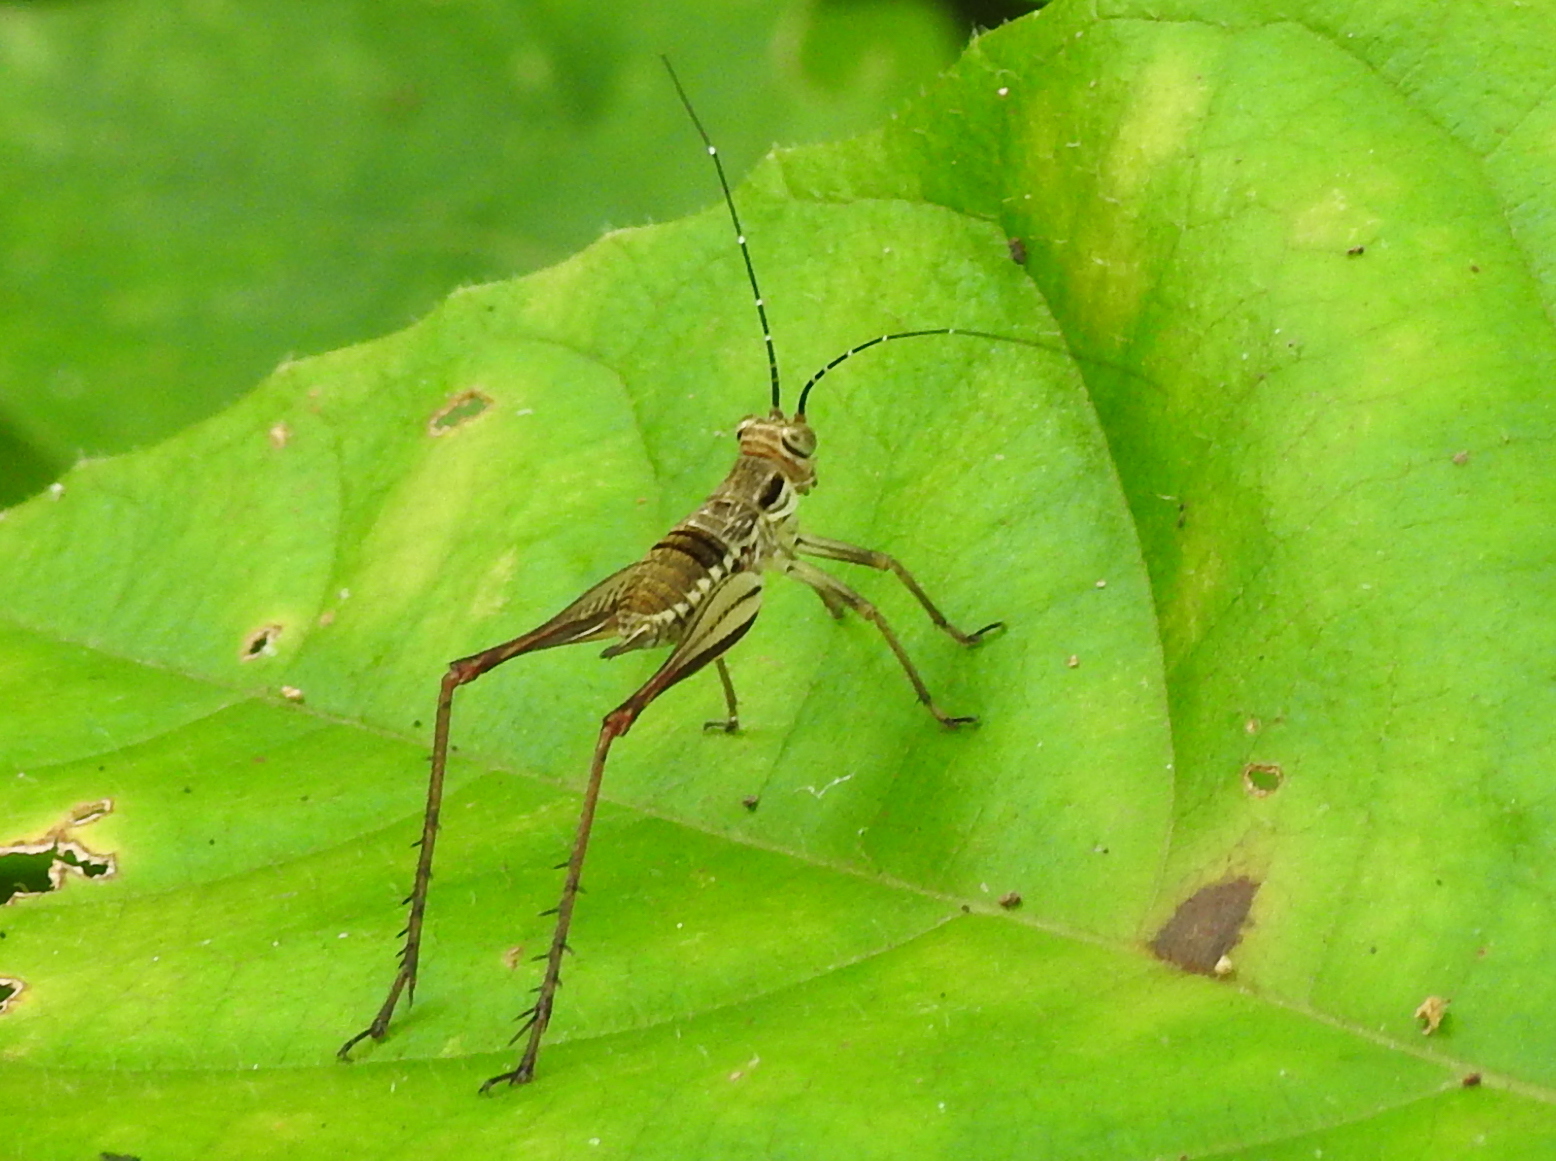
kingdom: Animalia
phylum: Arthropoda
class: Insecta
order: Orthoptera
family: Gryllidae
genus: Nisitrus
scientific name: Nisitrus malaya
